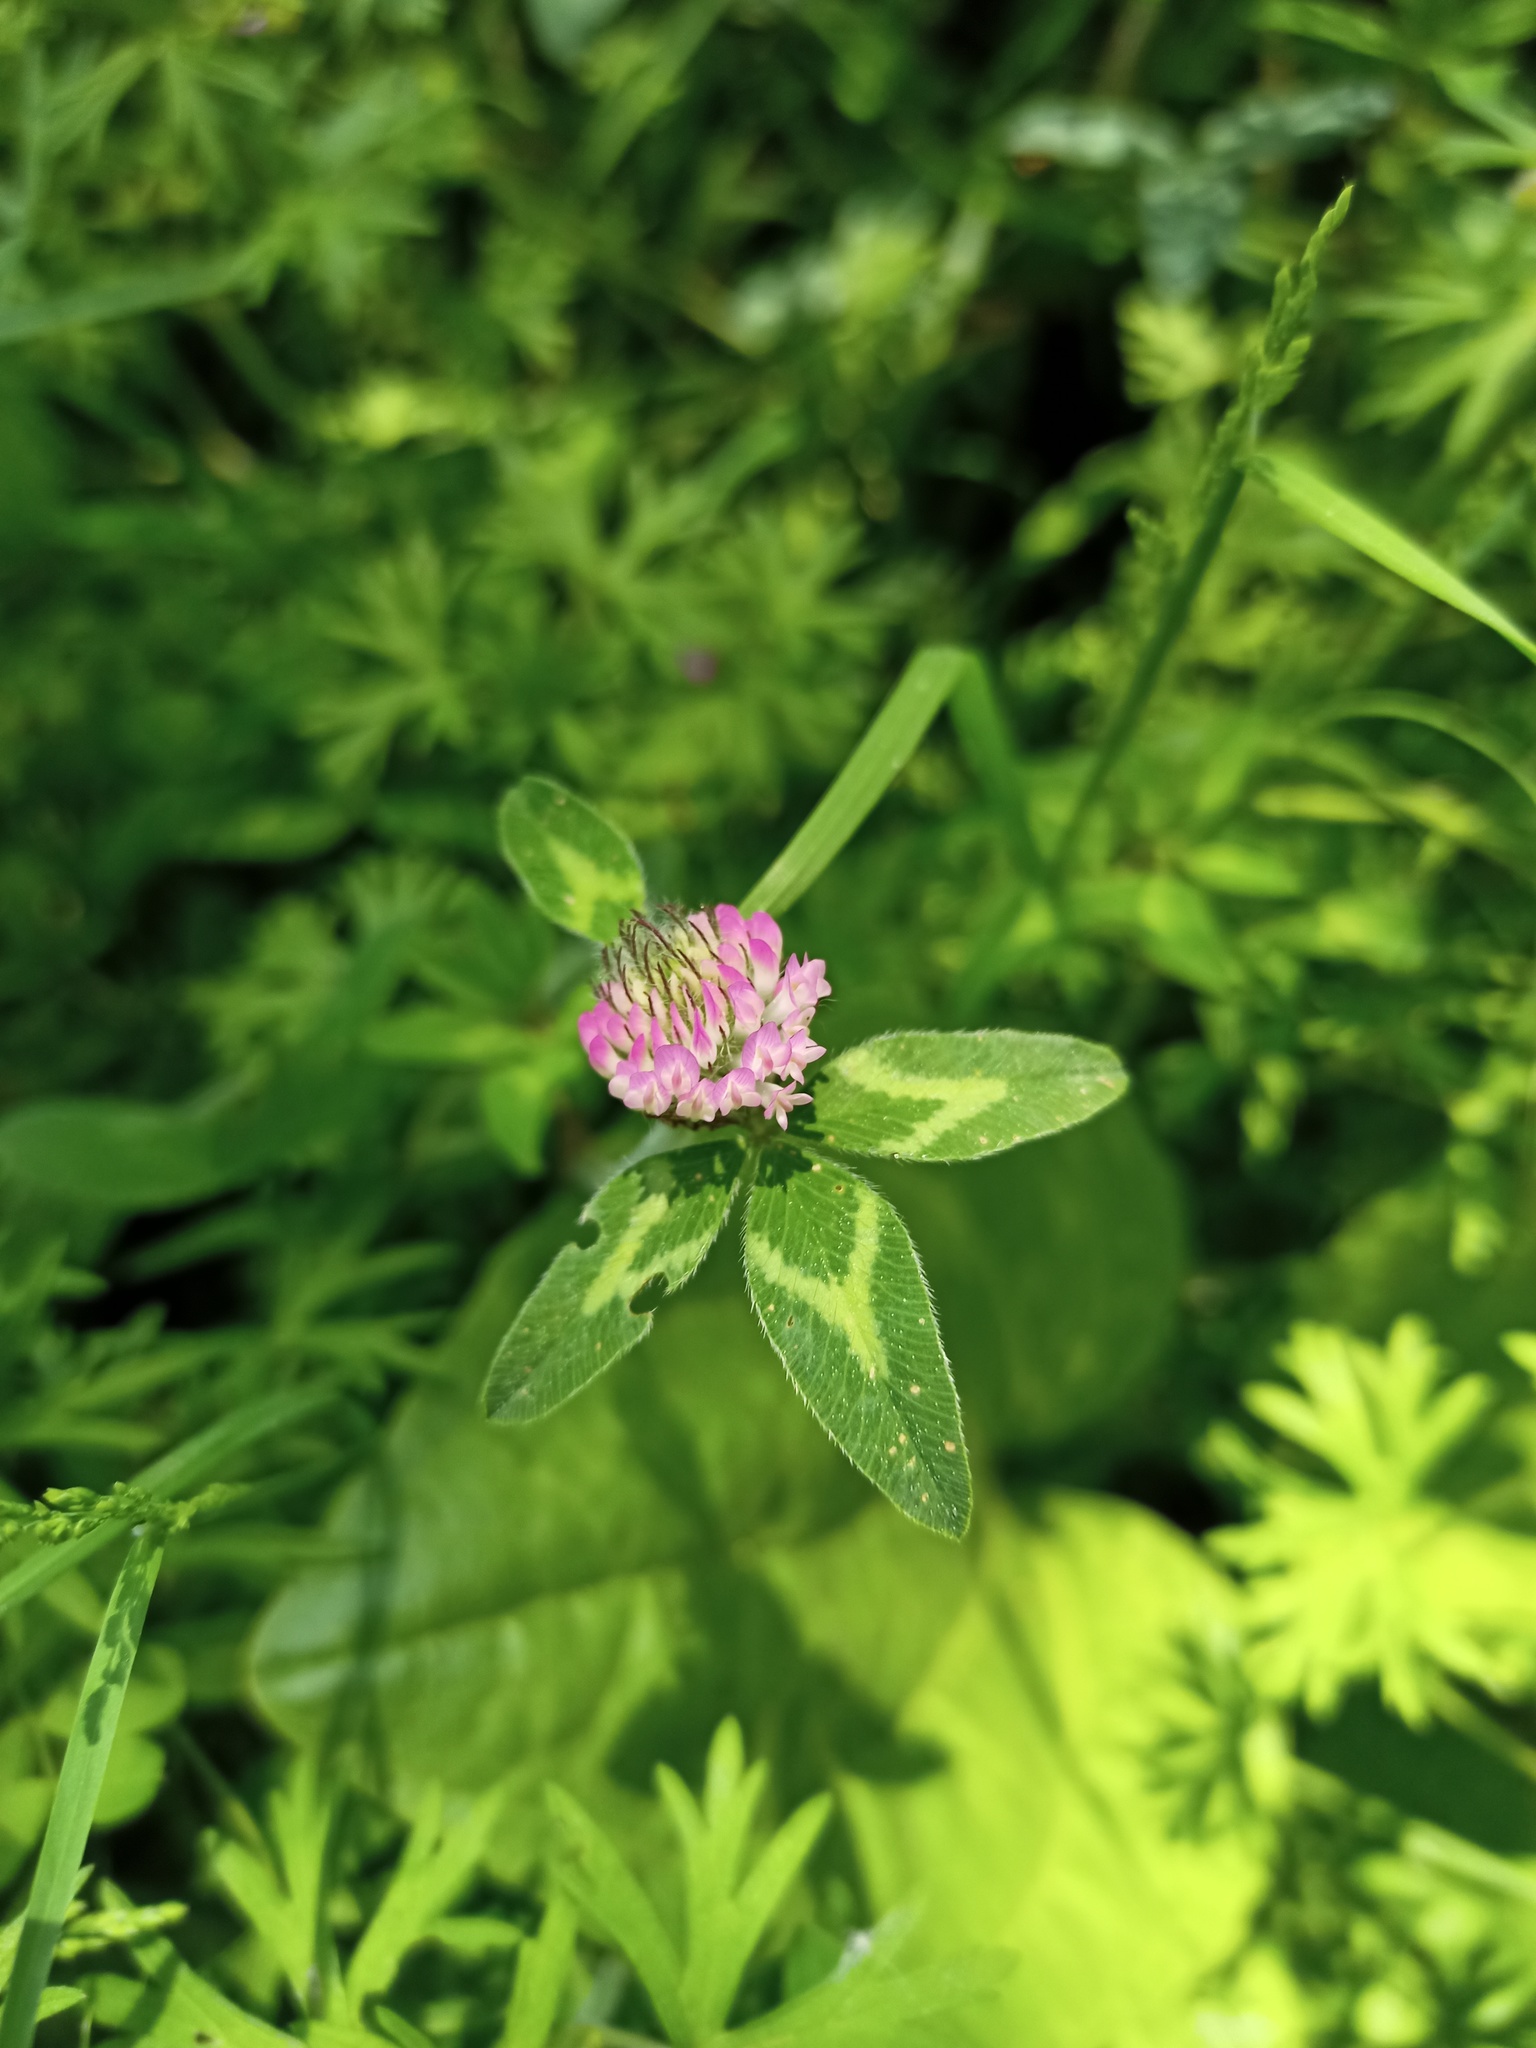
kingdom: Plantae
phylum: Tracheophyta
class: Magnoliopsida
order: Fabales
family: Fabaceae
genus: Trifolium
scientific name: Trifolium pratense
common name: Red clover
